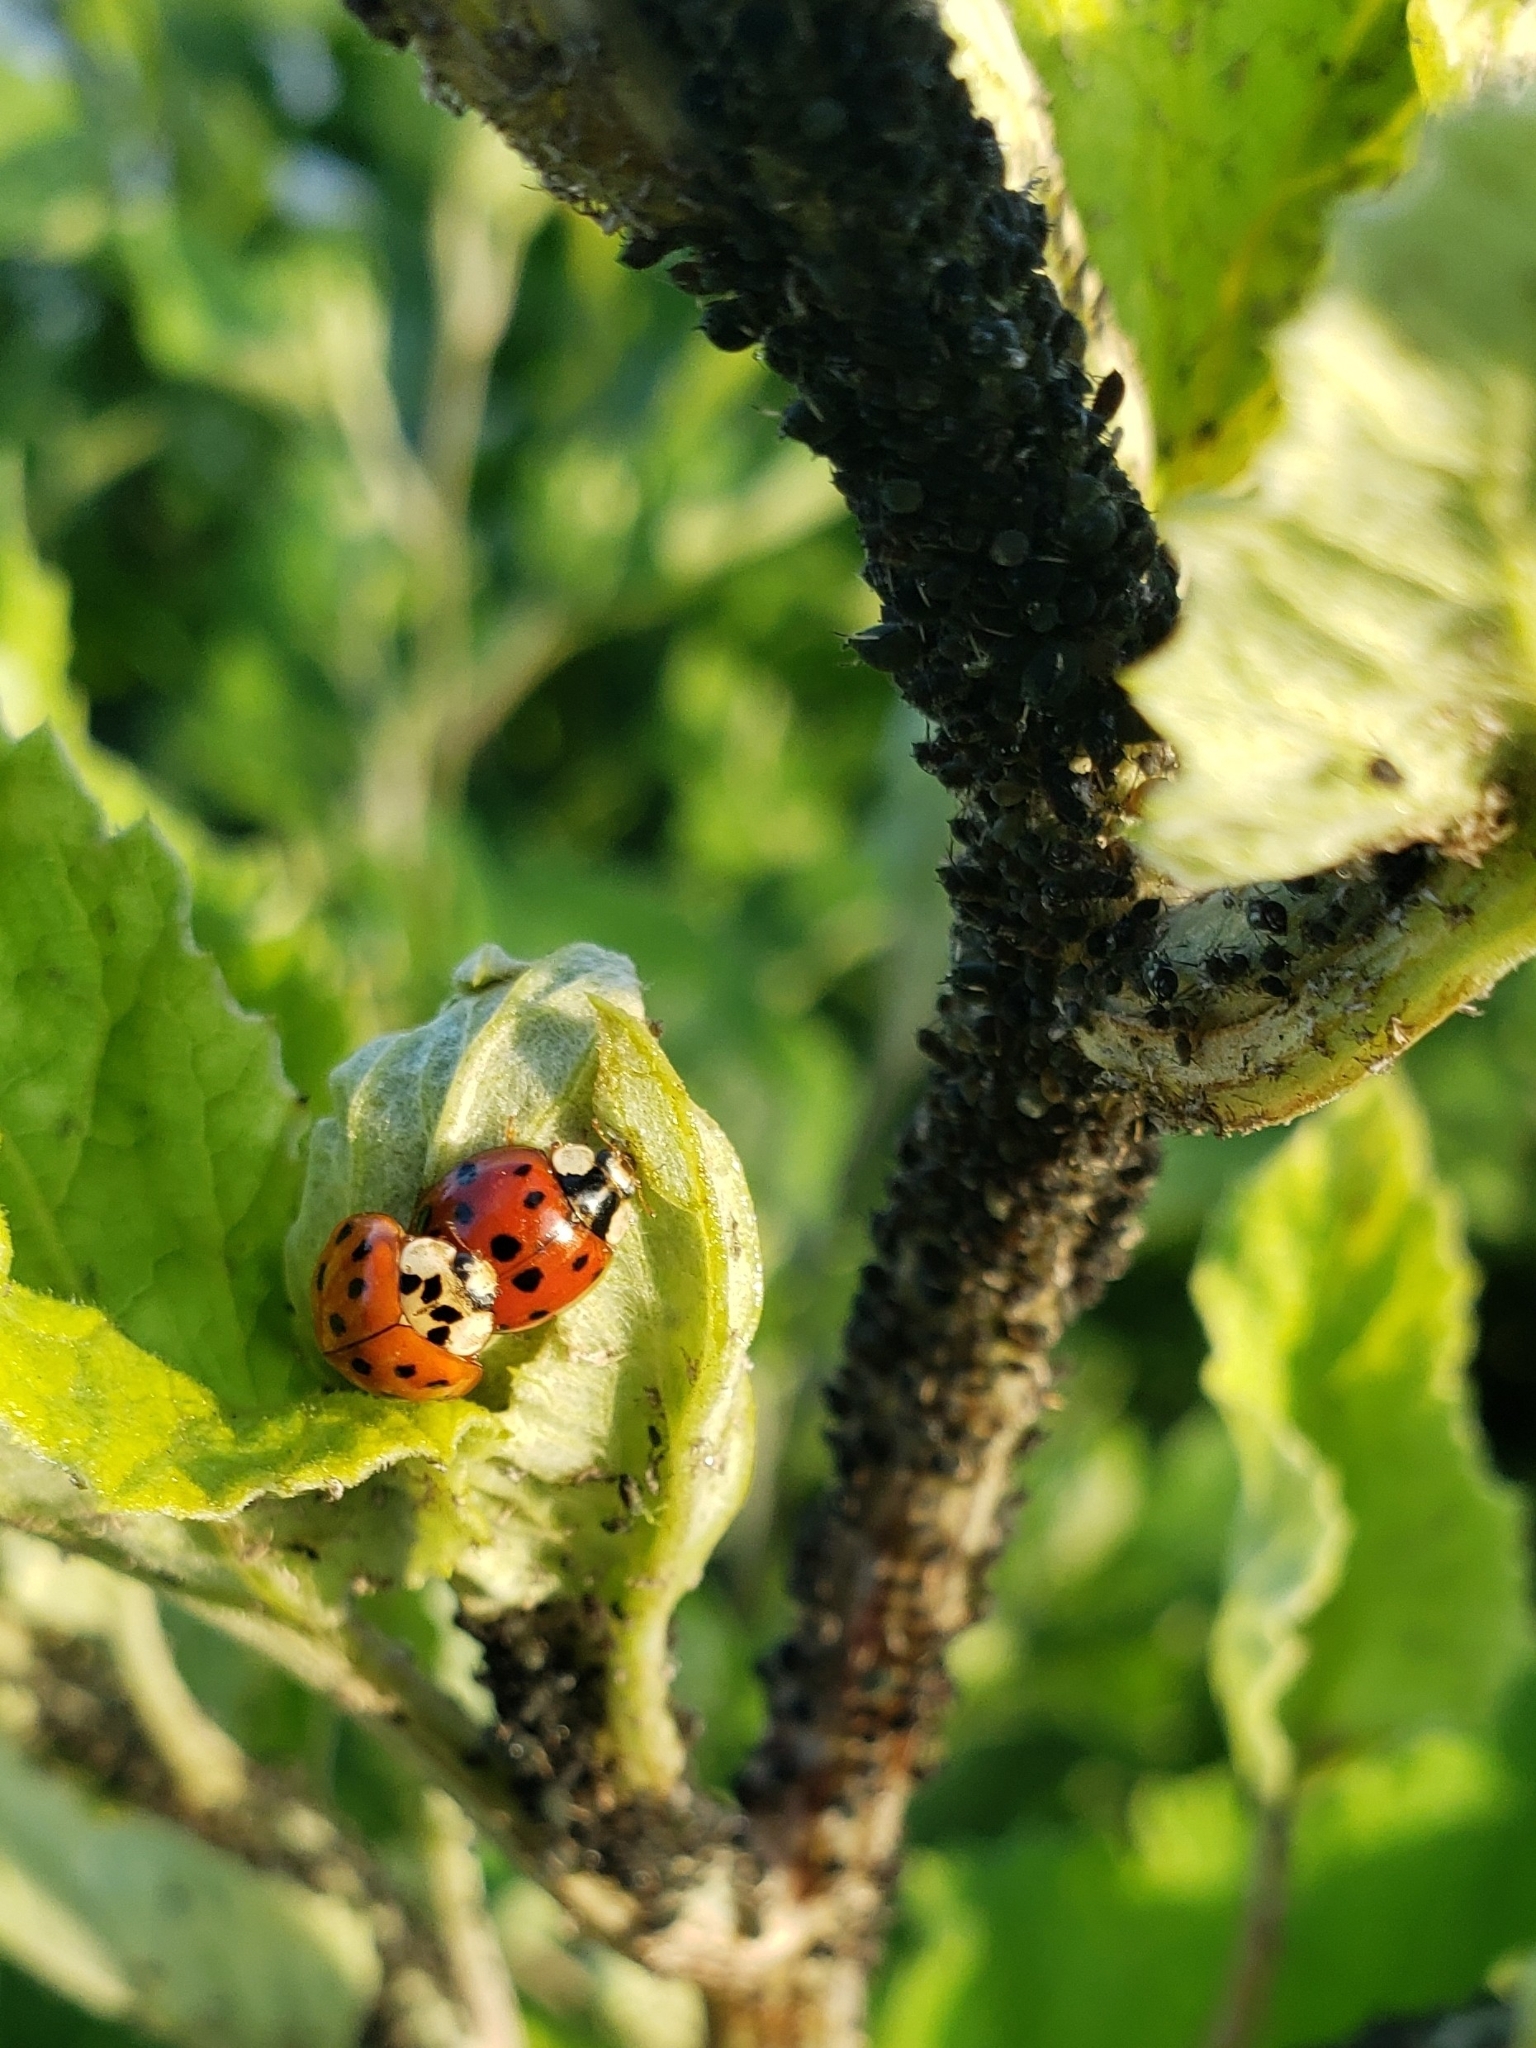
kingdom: Animalia
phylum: Arthropoda
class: Insecta
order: Coleoptera
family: Coccinellidae
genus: Harmonia
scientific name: Harmonia axyridis
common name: Harlequin ladybird
